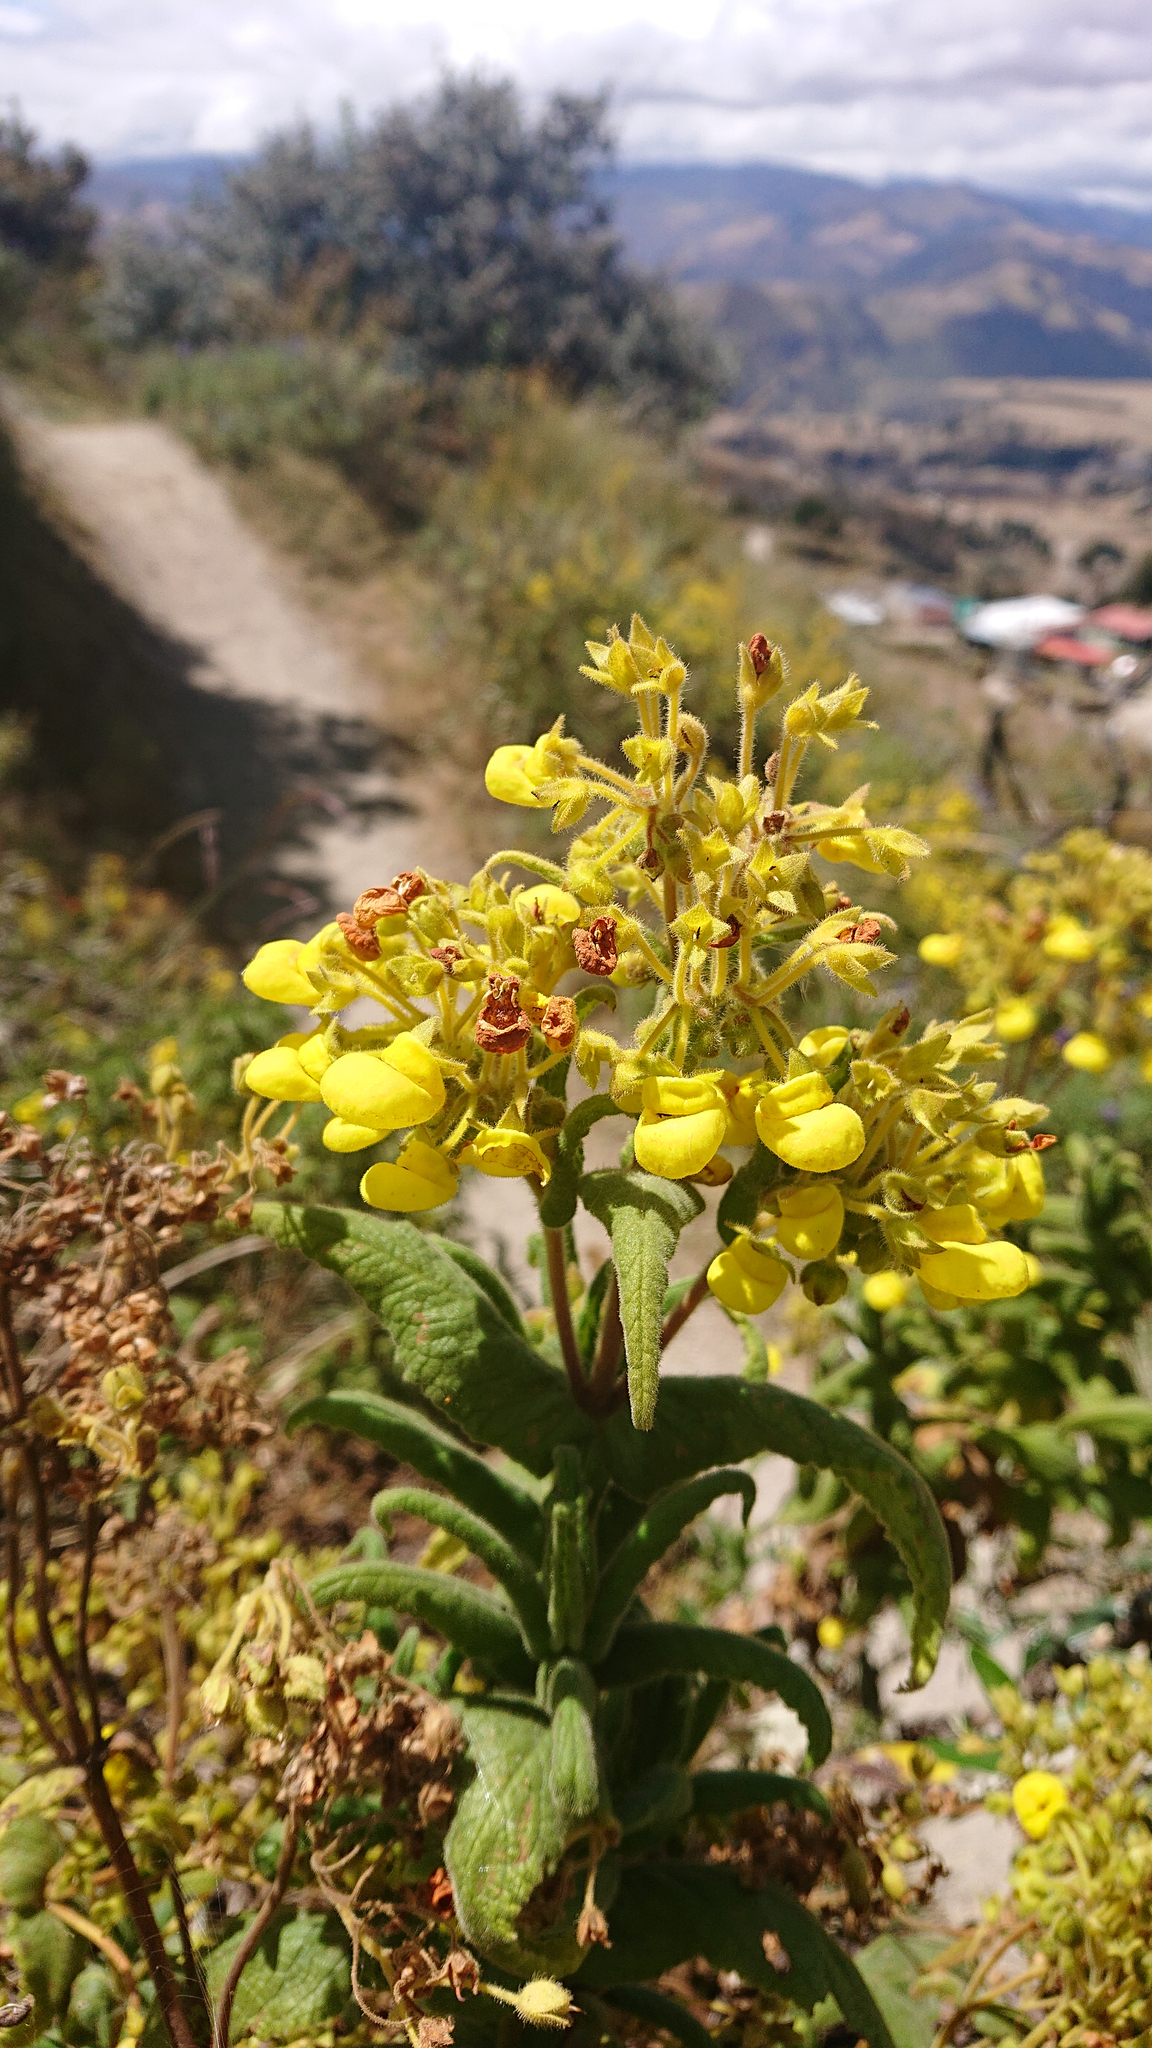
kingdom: Plantae
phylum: Tracheophyta
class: Magnoliopsida
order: Lamiales
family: Calceolariaceae
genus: Calceolaria
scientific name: Calceolaria crenata
